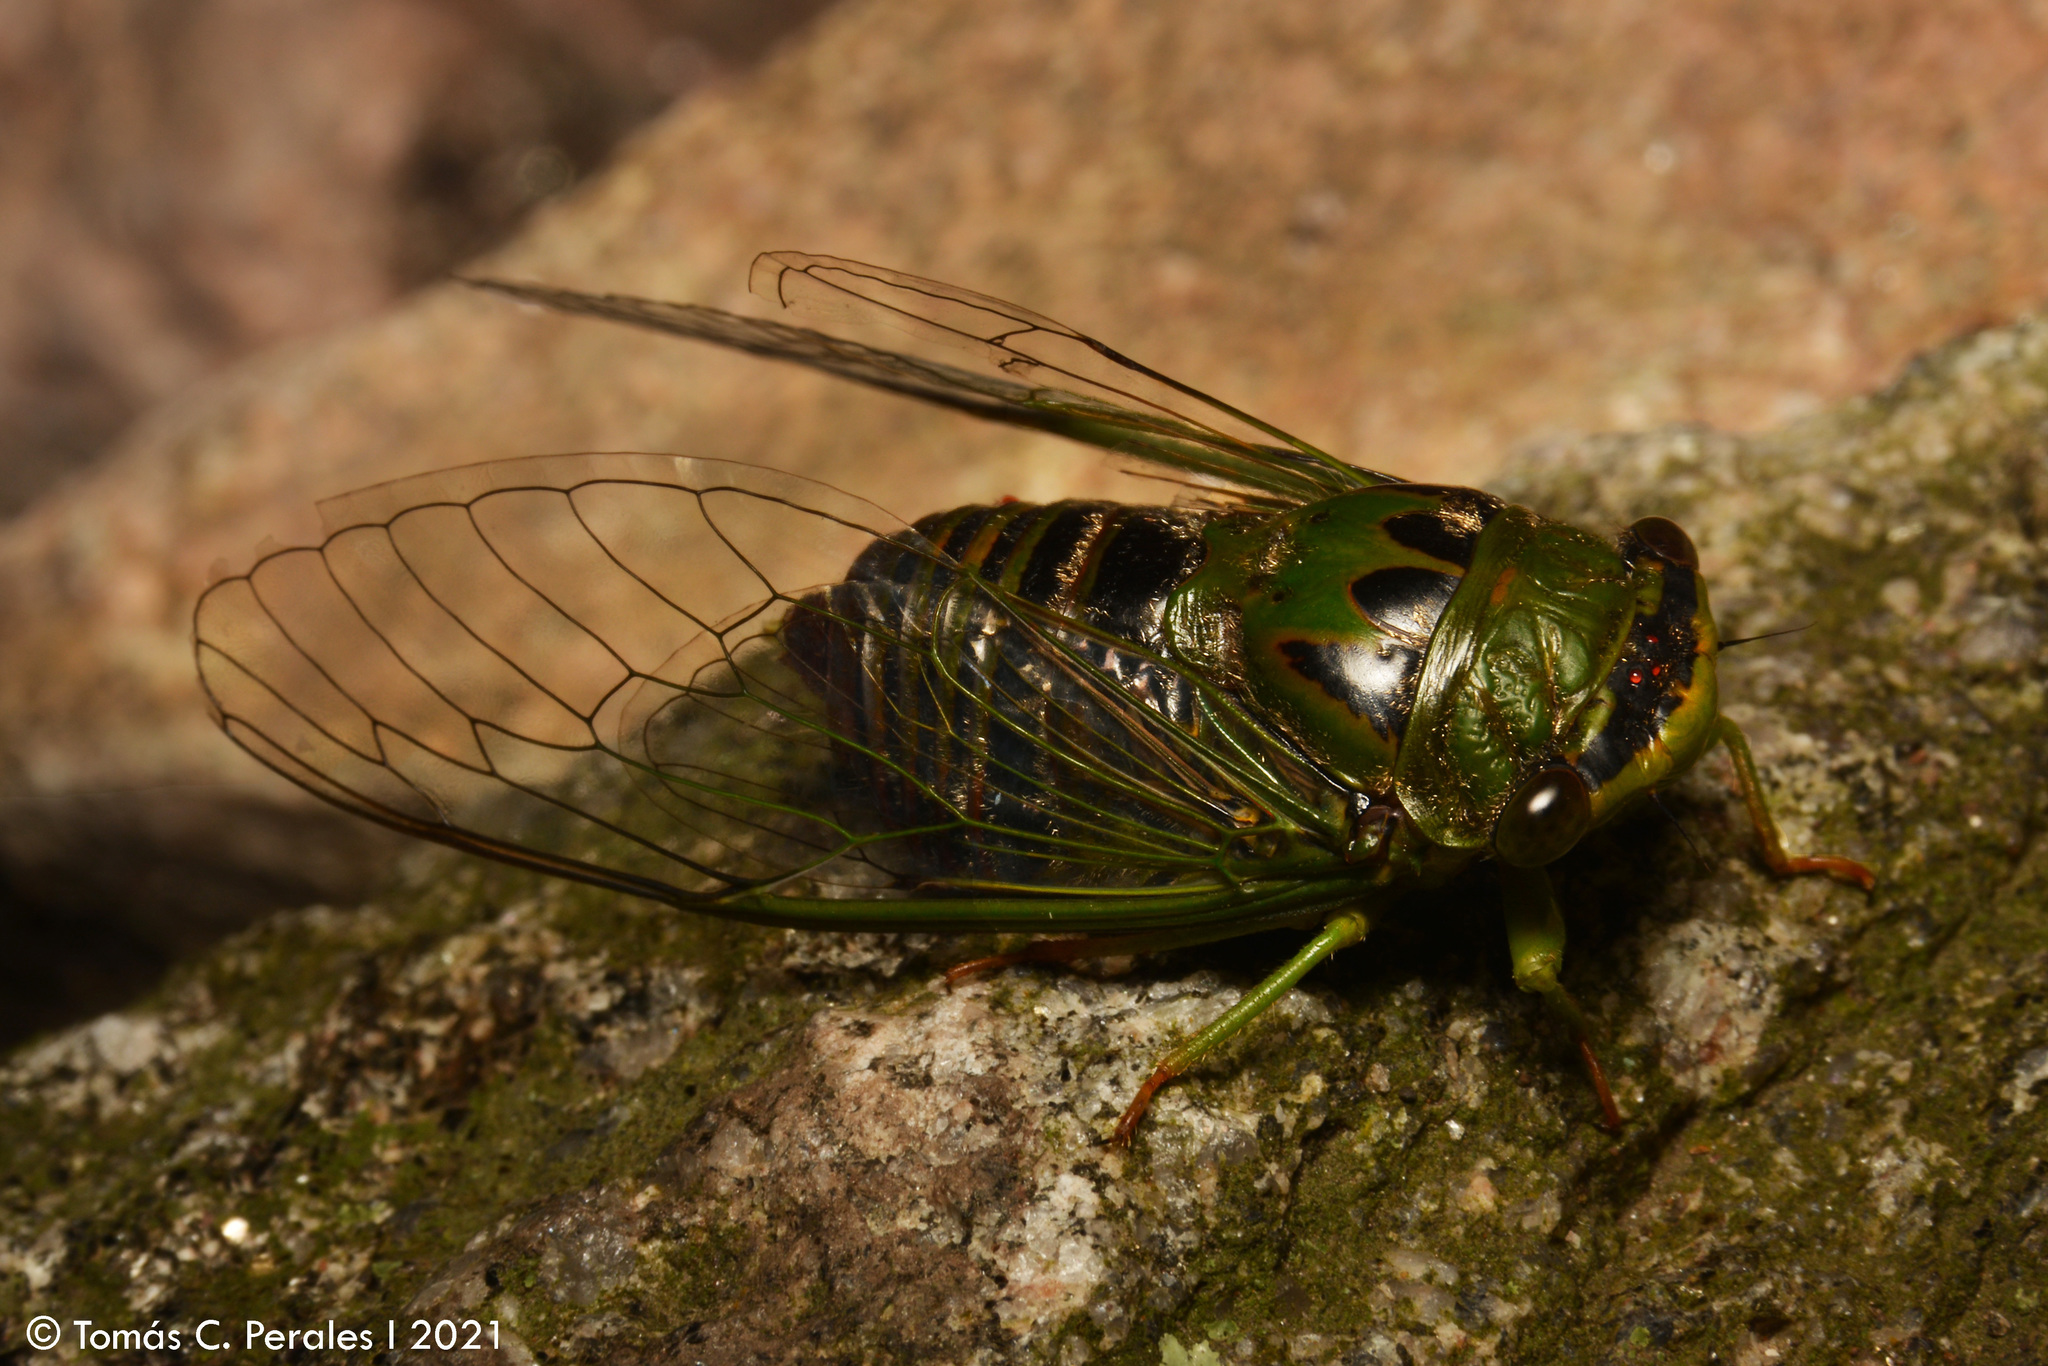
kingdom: Animalia
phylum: Arthropoda
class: Insecta
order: Hemiptera
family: Cicadidae
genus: Acanthoventris
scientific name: Acanthoventris drewseni
